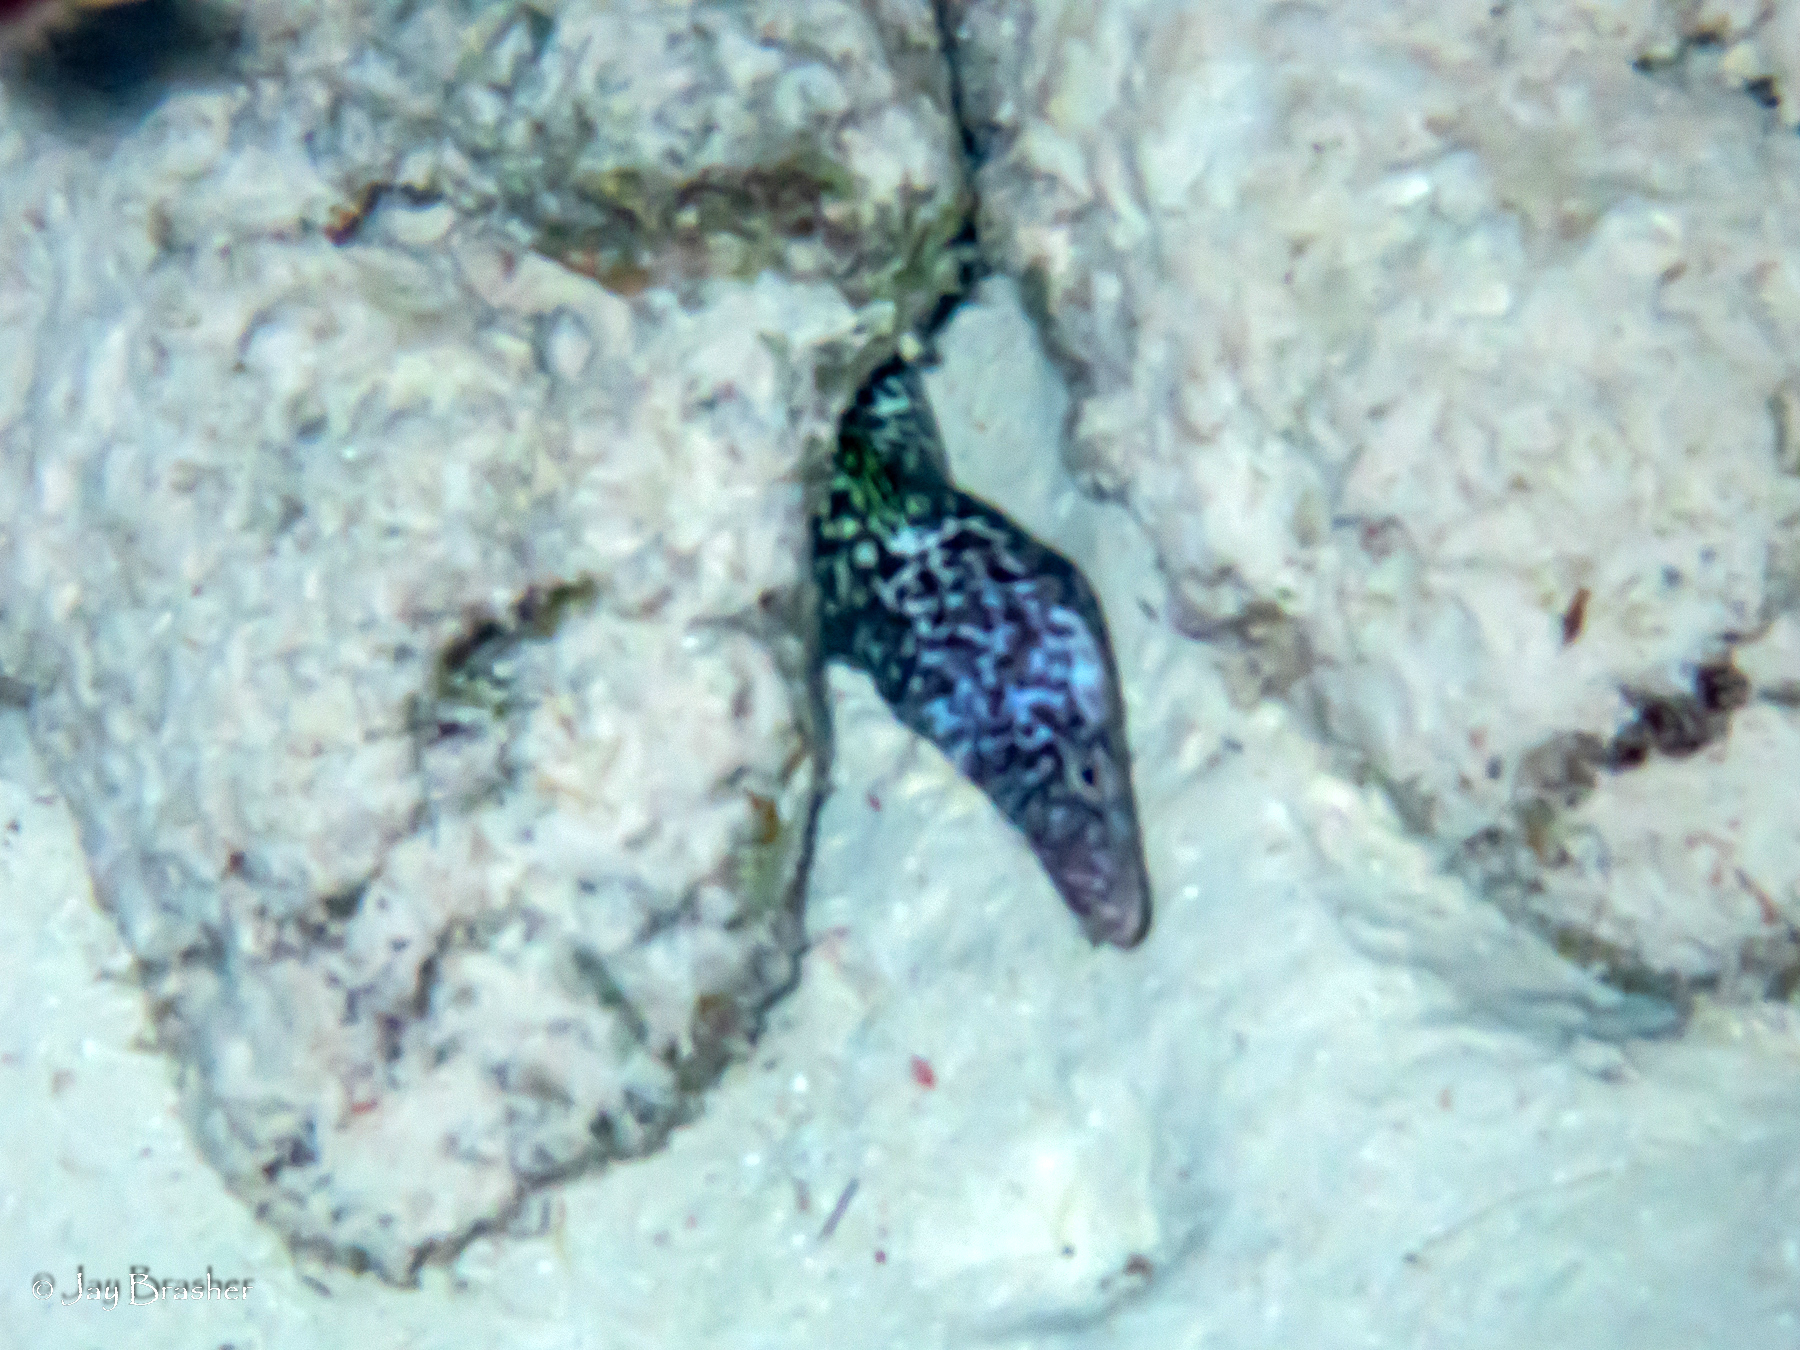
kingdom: Animalia
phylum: Chordata
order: Anguilliformes
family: Muraenidae
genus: Gymnothorax
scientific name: Gymnothorax moringa
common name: Spotted moray
